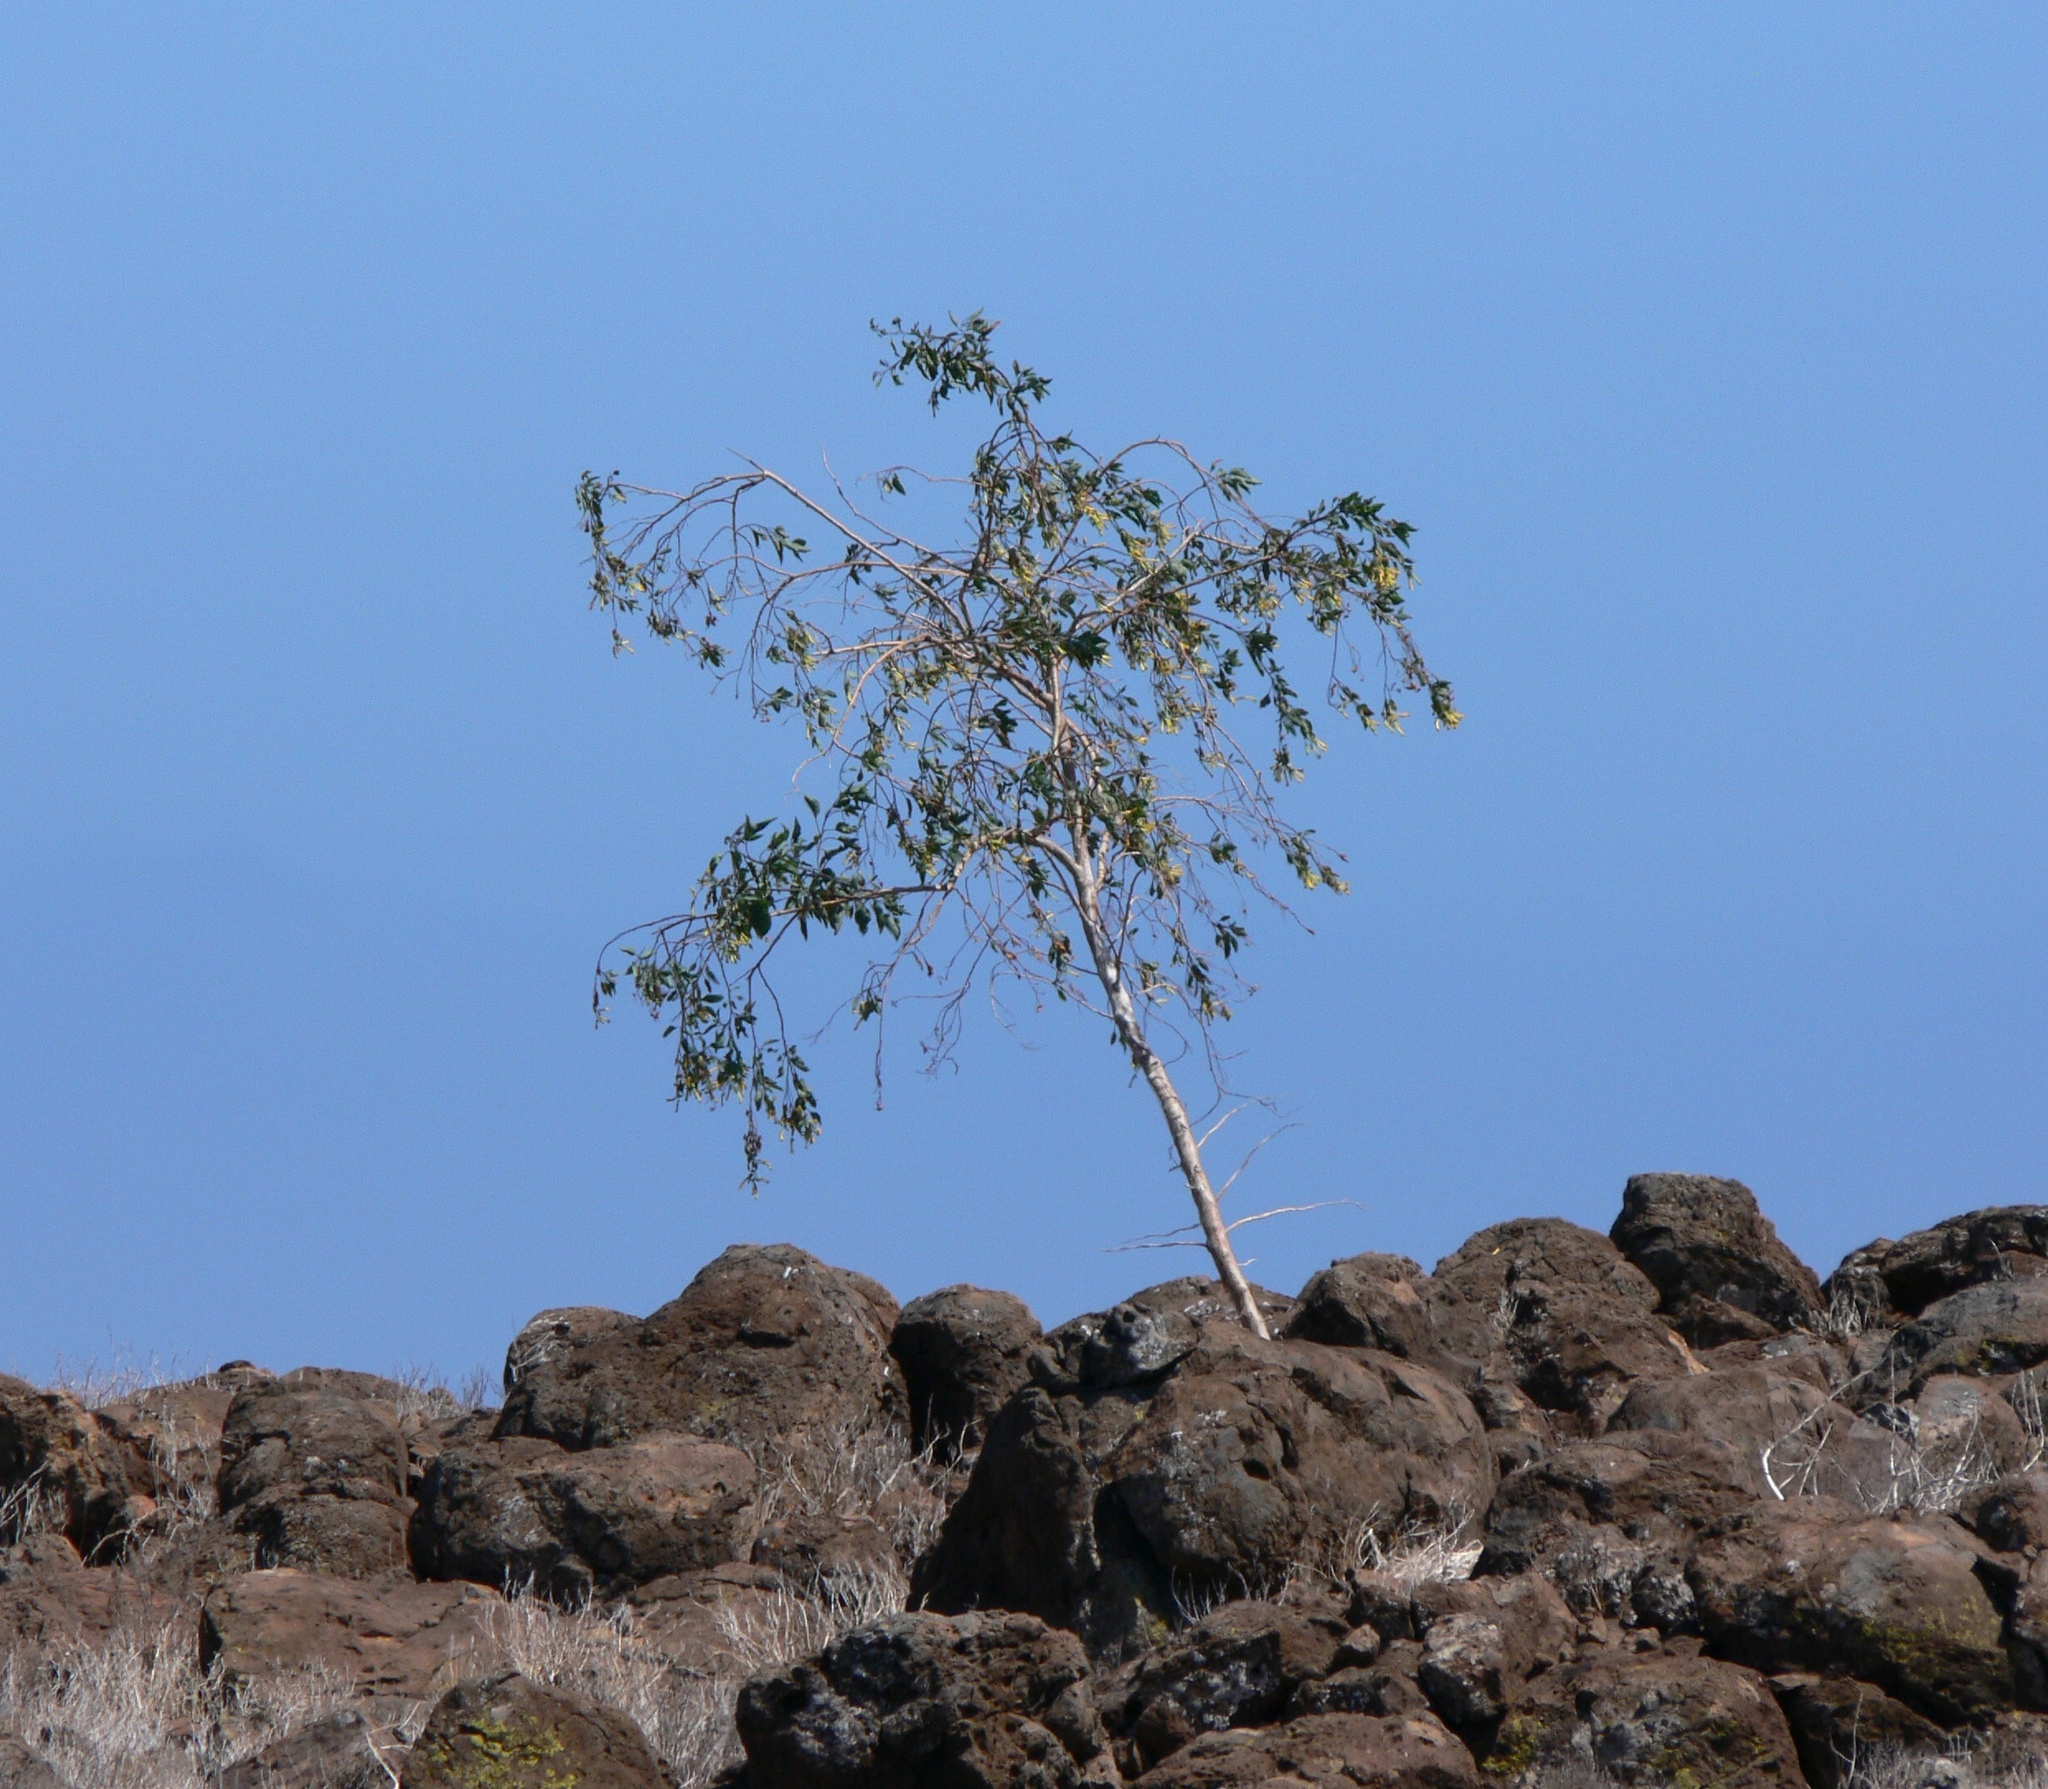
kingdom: Plantae
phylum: Tracheophyta
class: Magnoliopsida
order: Solanales
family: Solanaceae
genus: Nicotiana
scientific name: Nicotiana glauca
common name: Tree tobacco
